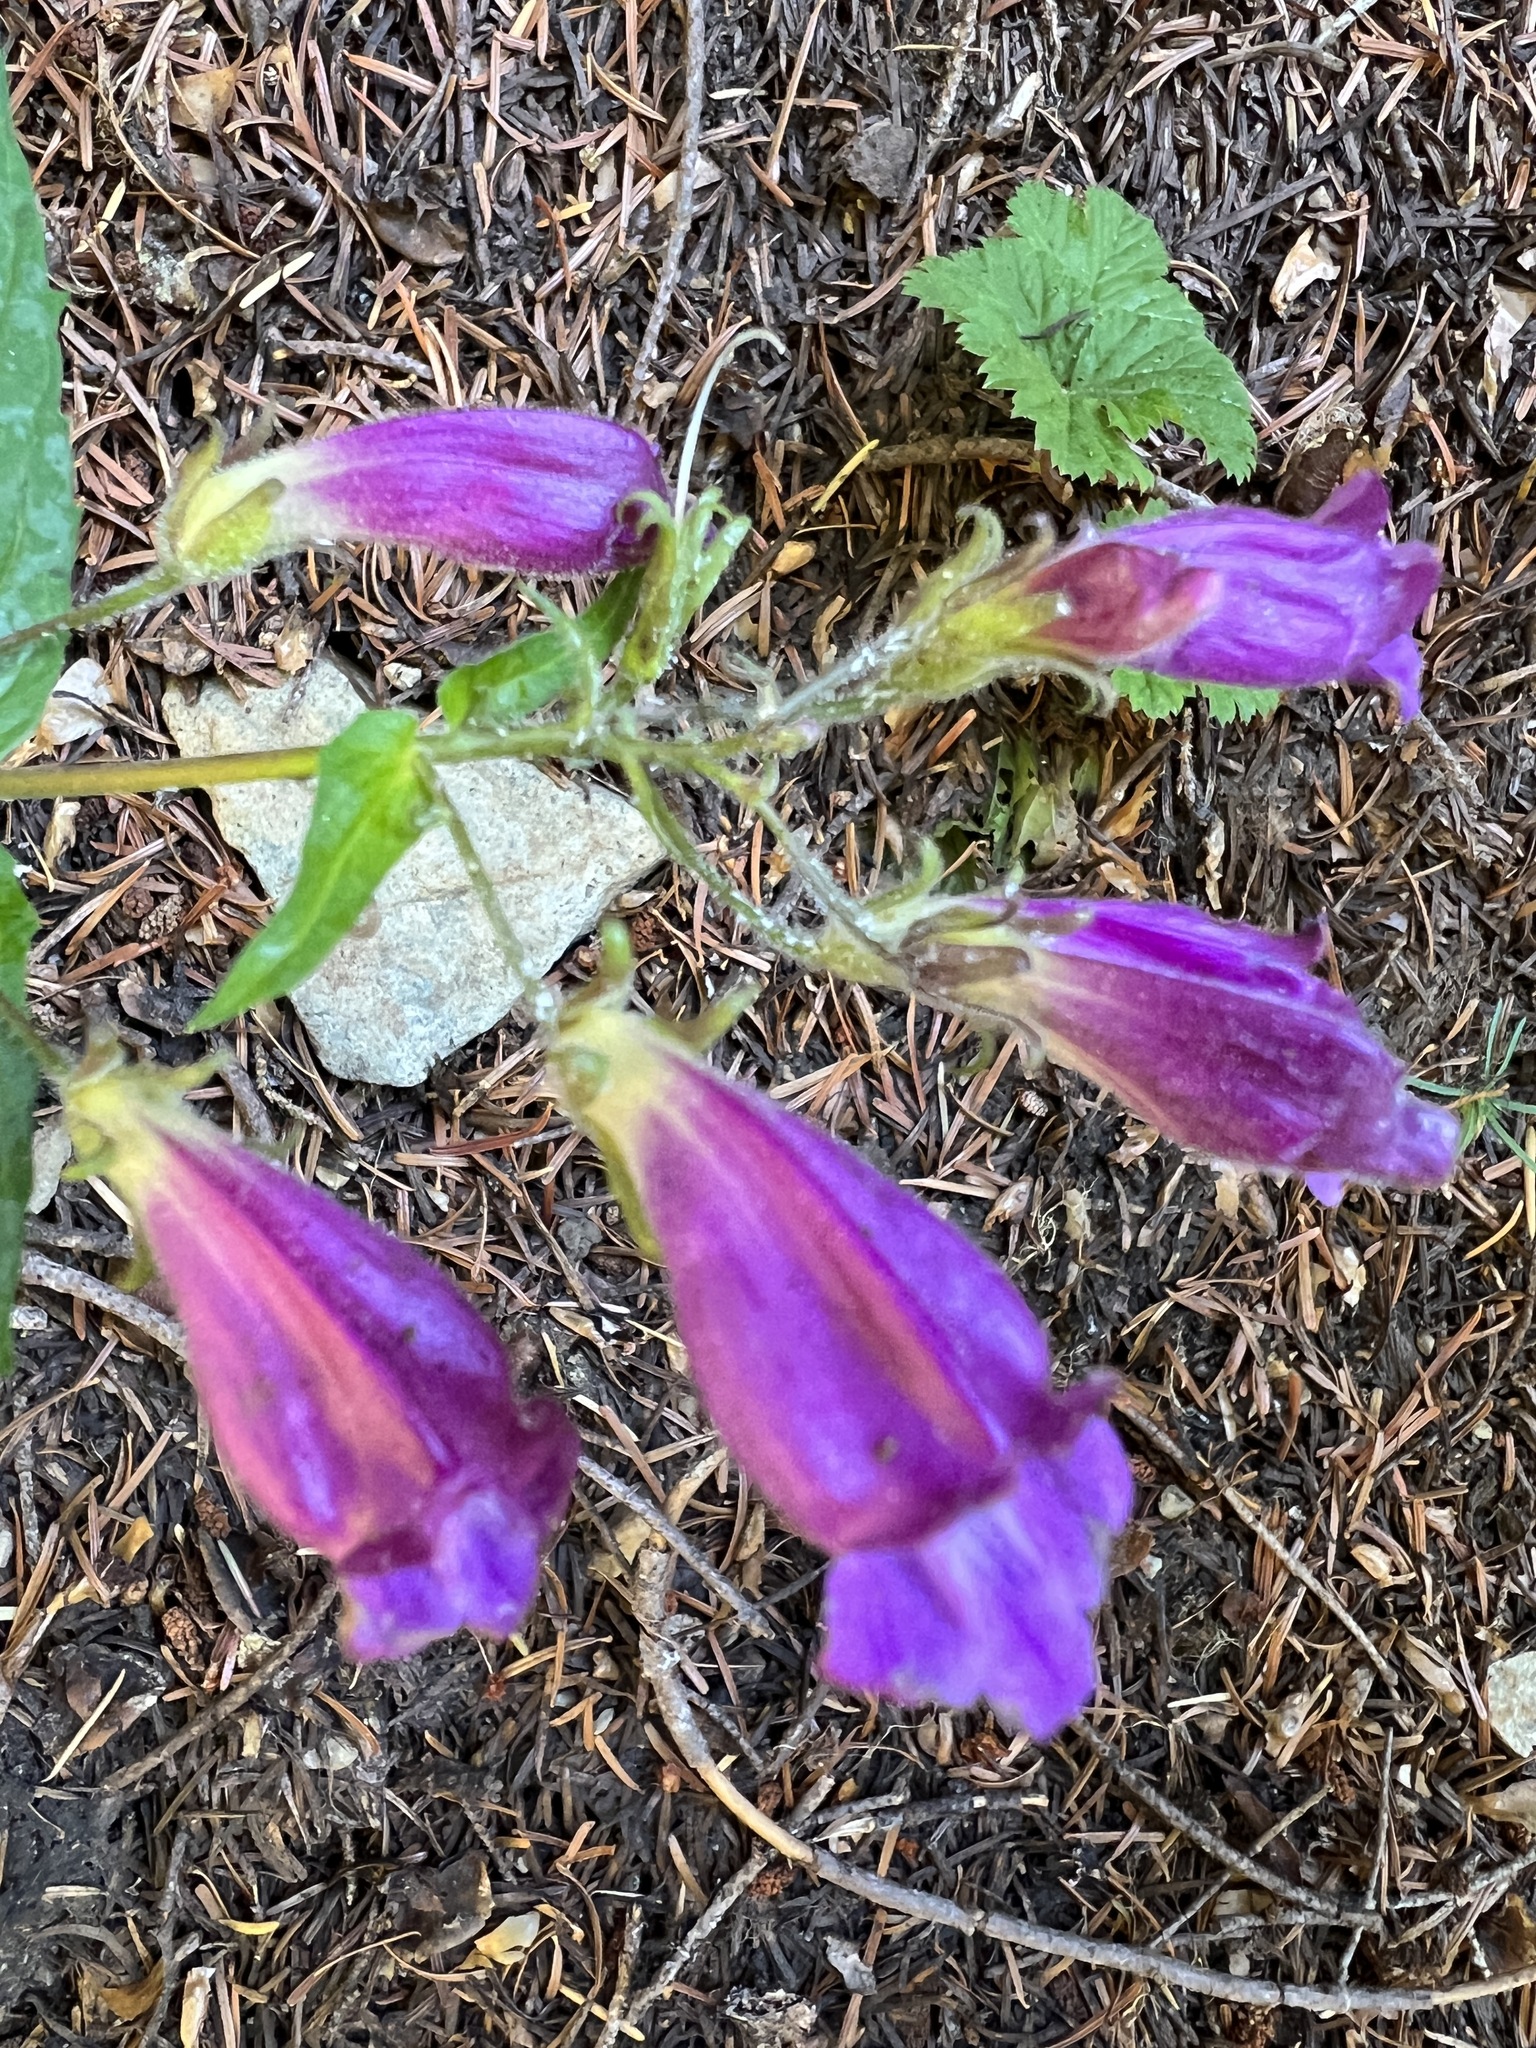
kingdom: Plantae
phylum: Tracheophyta
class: Magnoliopsida
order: Lamiales
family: Plantaginaceae
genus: Nothochelone
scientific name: Nothochelone nemorosa
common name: Woodland beardtongue
